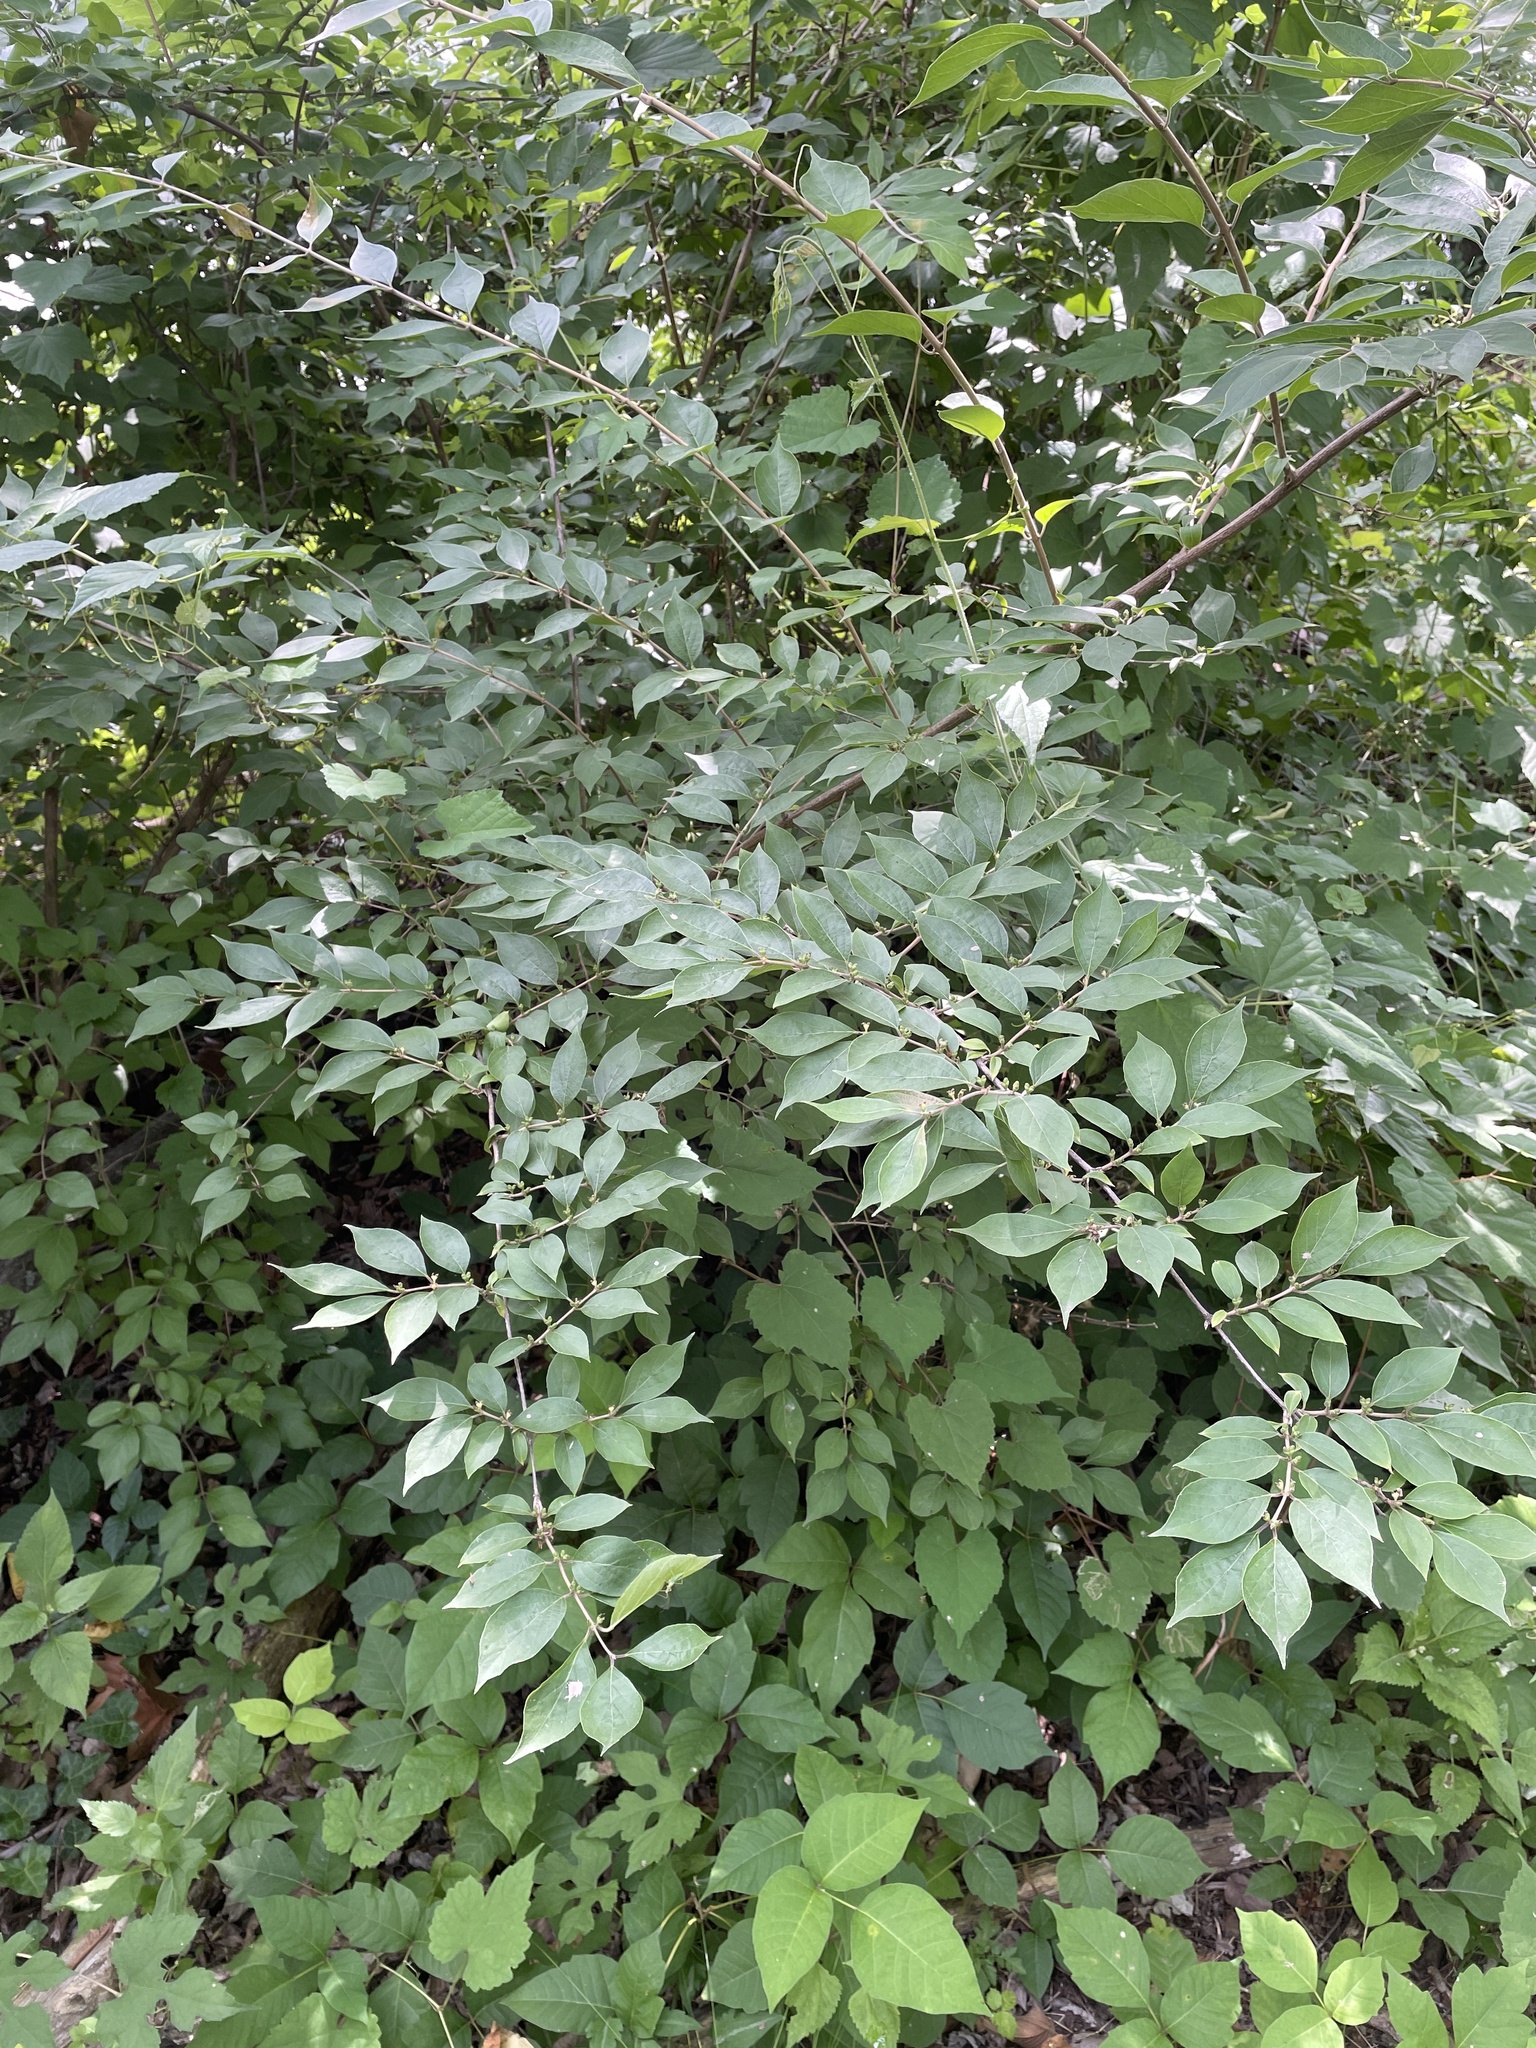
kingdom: Plantae
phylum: Tracheophyta
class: Magnoliopsida
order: Dipsacales
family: Caprifoliaceae
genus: Lonicera
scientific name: Lonicera maackii
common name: Amur honeysuckle
